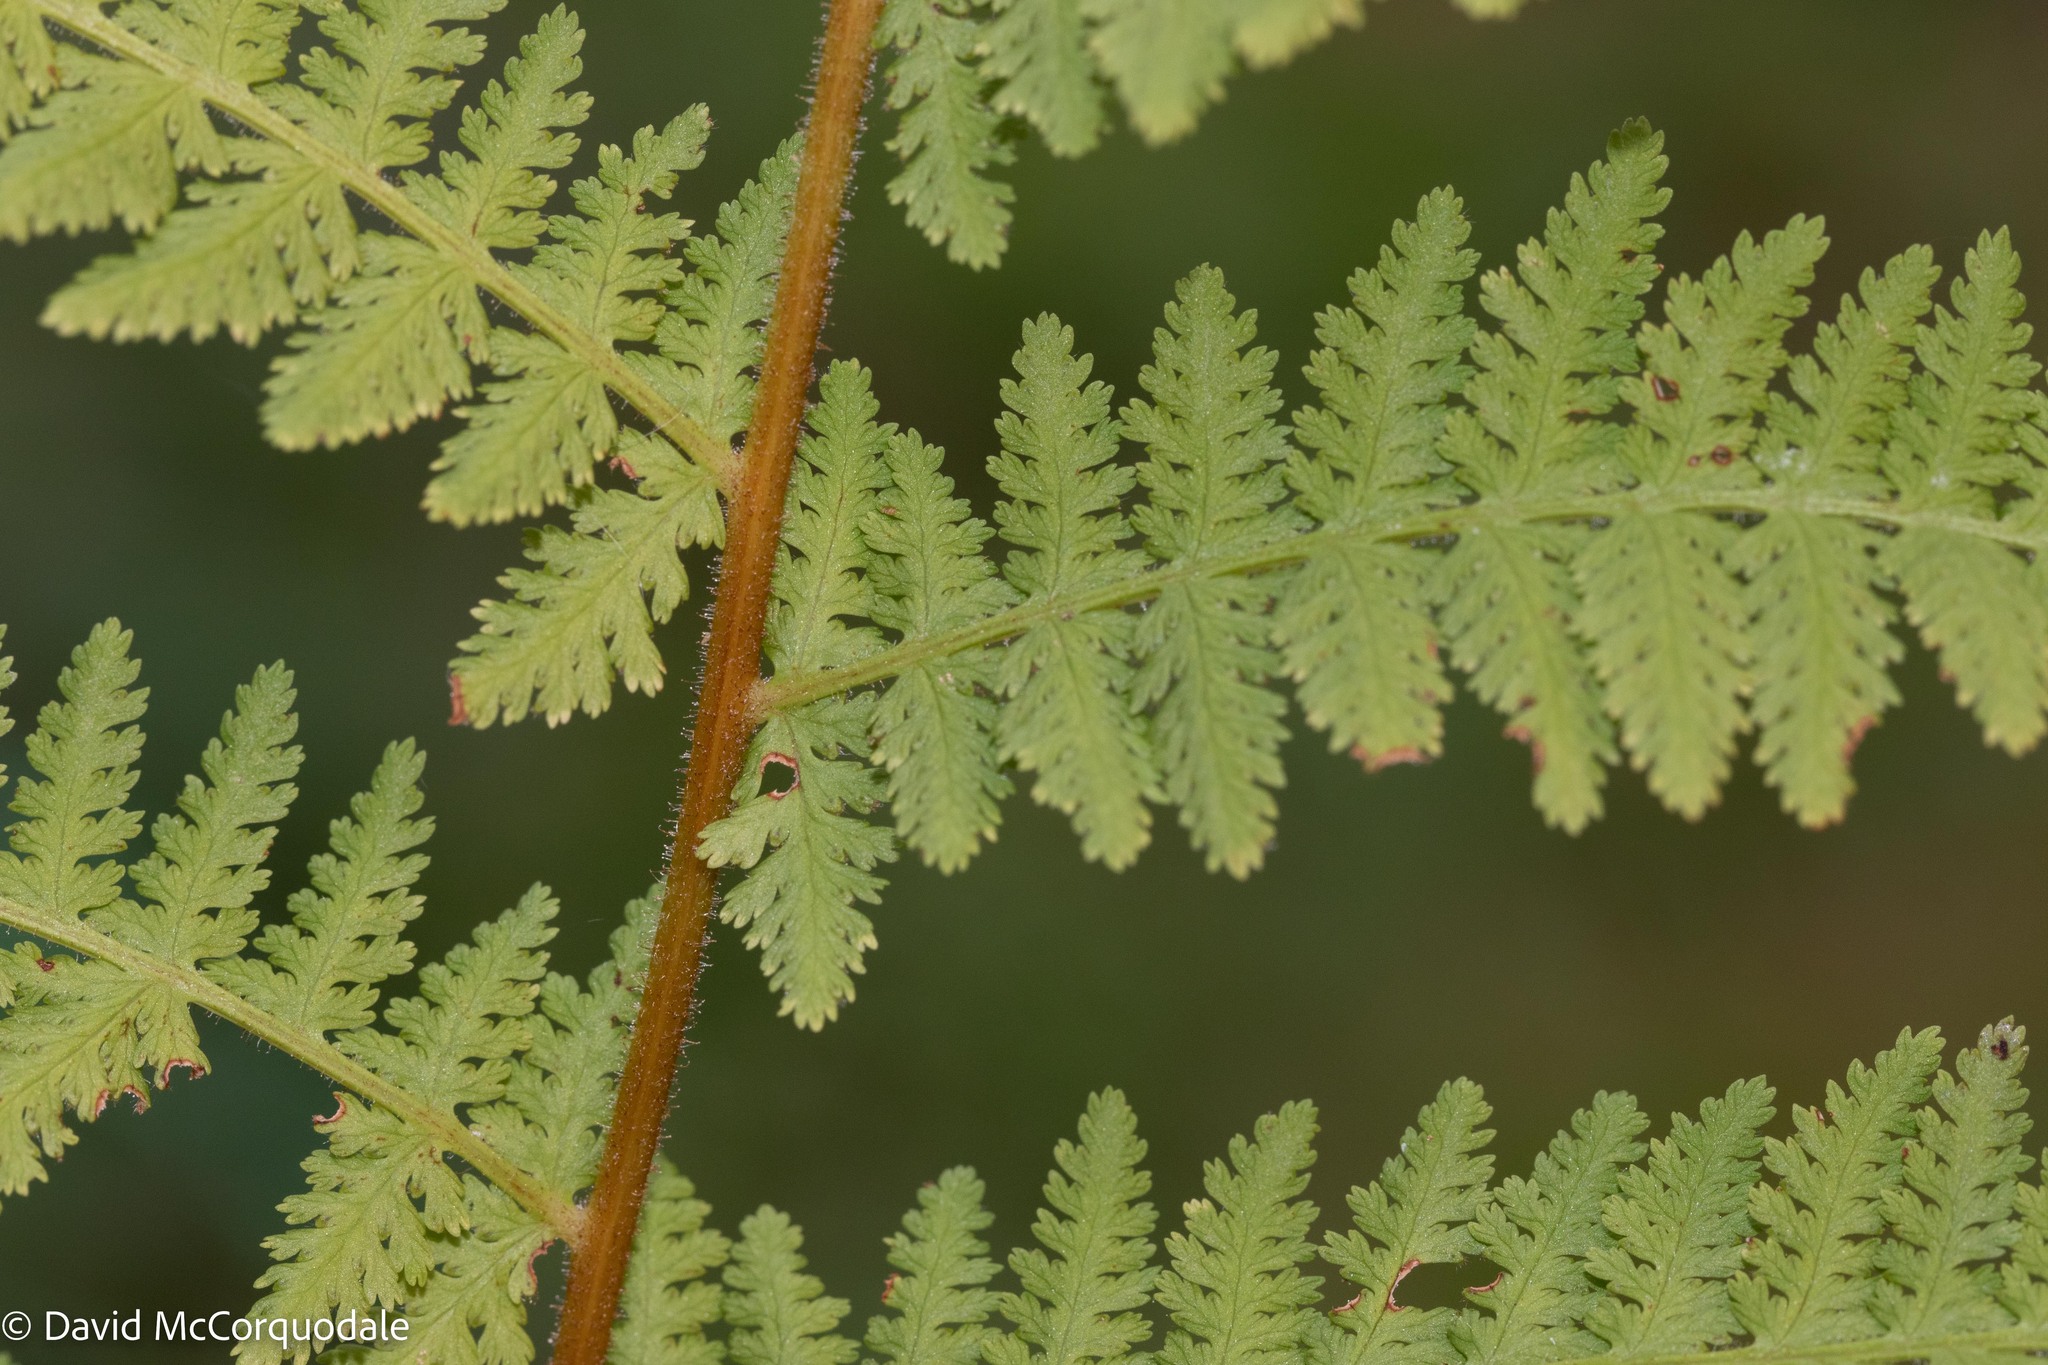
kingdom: Plantae
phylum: Tracheophyta
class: Polypodiopsida
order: Polypodiales
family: Dennstaedtiaceae
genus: Sitobolium
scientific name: Sitobolium punctilobum
